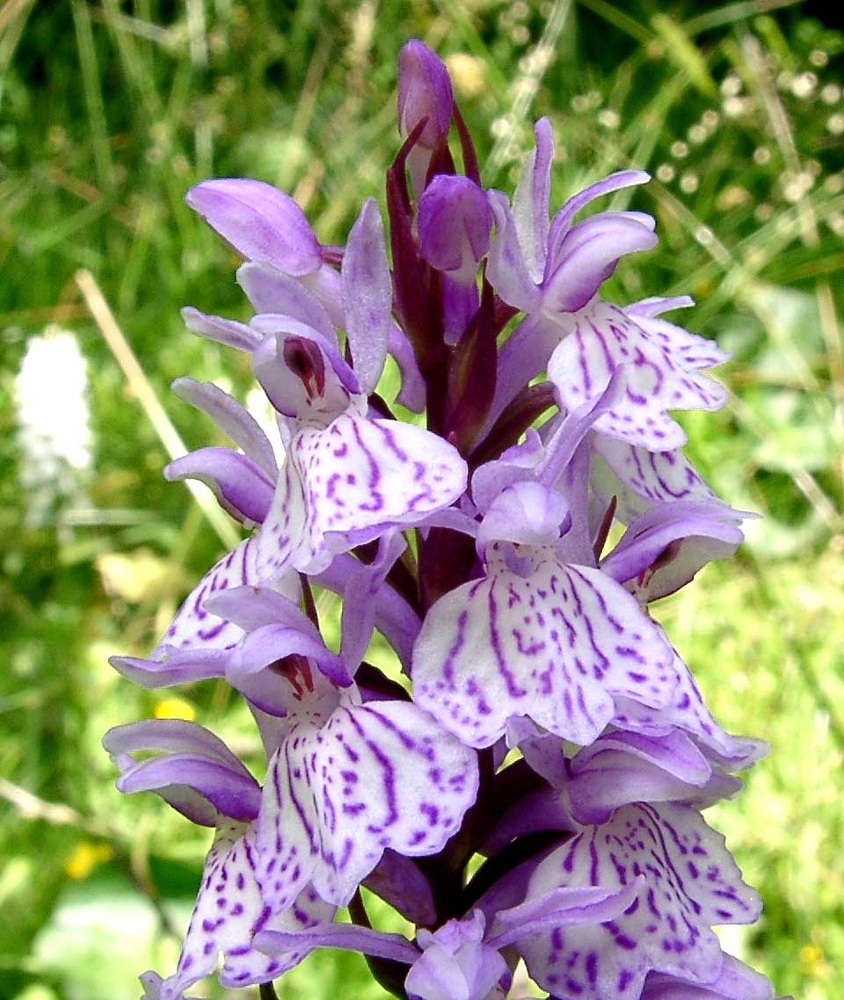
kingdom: Plantae
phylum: Tracheophyta
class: Liliopsida
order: Asparagales
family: Orchidaceae
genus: Dactylorhiza
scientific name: Dactylorhiza maculata
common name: Heath spotted-orchid
